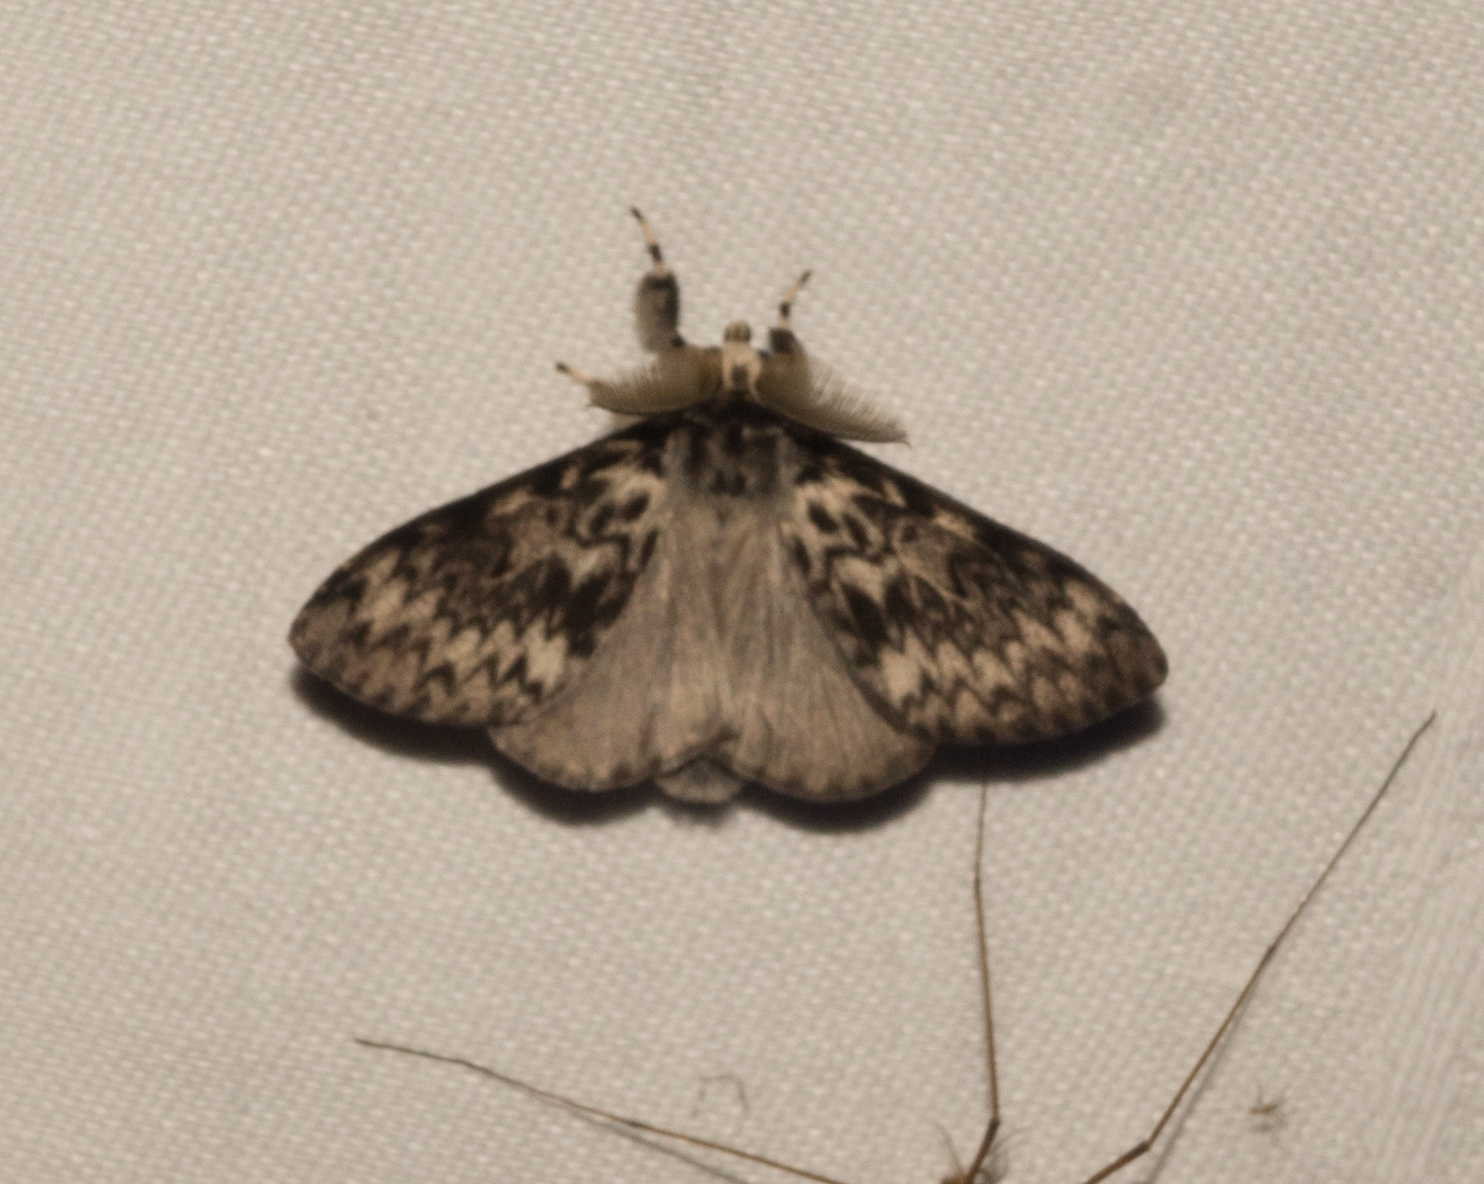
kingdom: Animalia
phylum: Arthropoda
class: Insecta
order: Lepidoptera
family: Erebidae
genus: Lymantria
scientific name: Lymantria monacha
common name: Black arches
